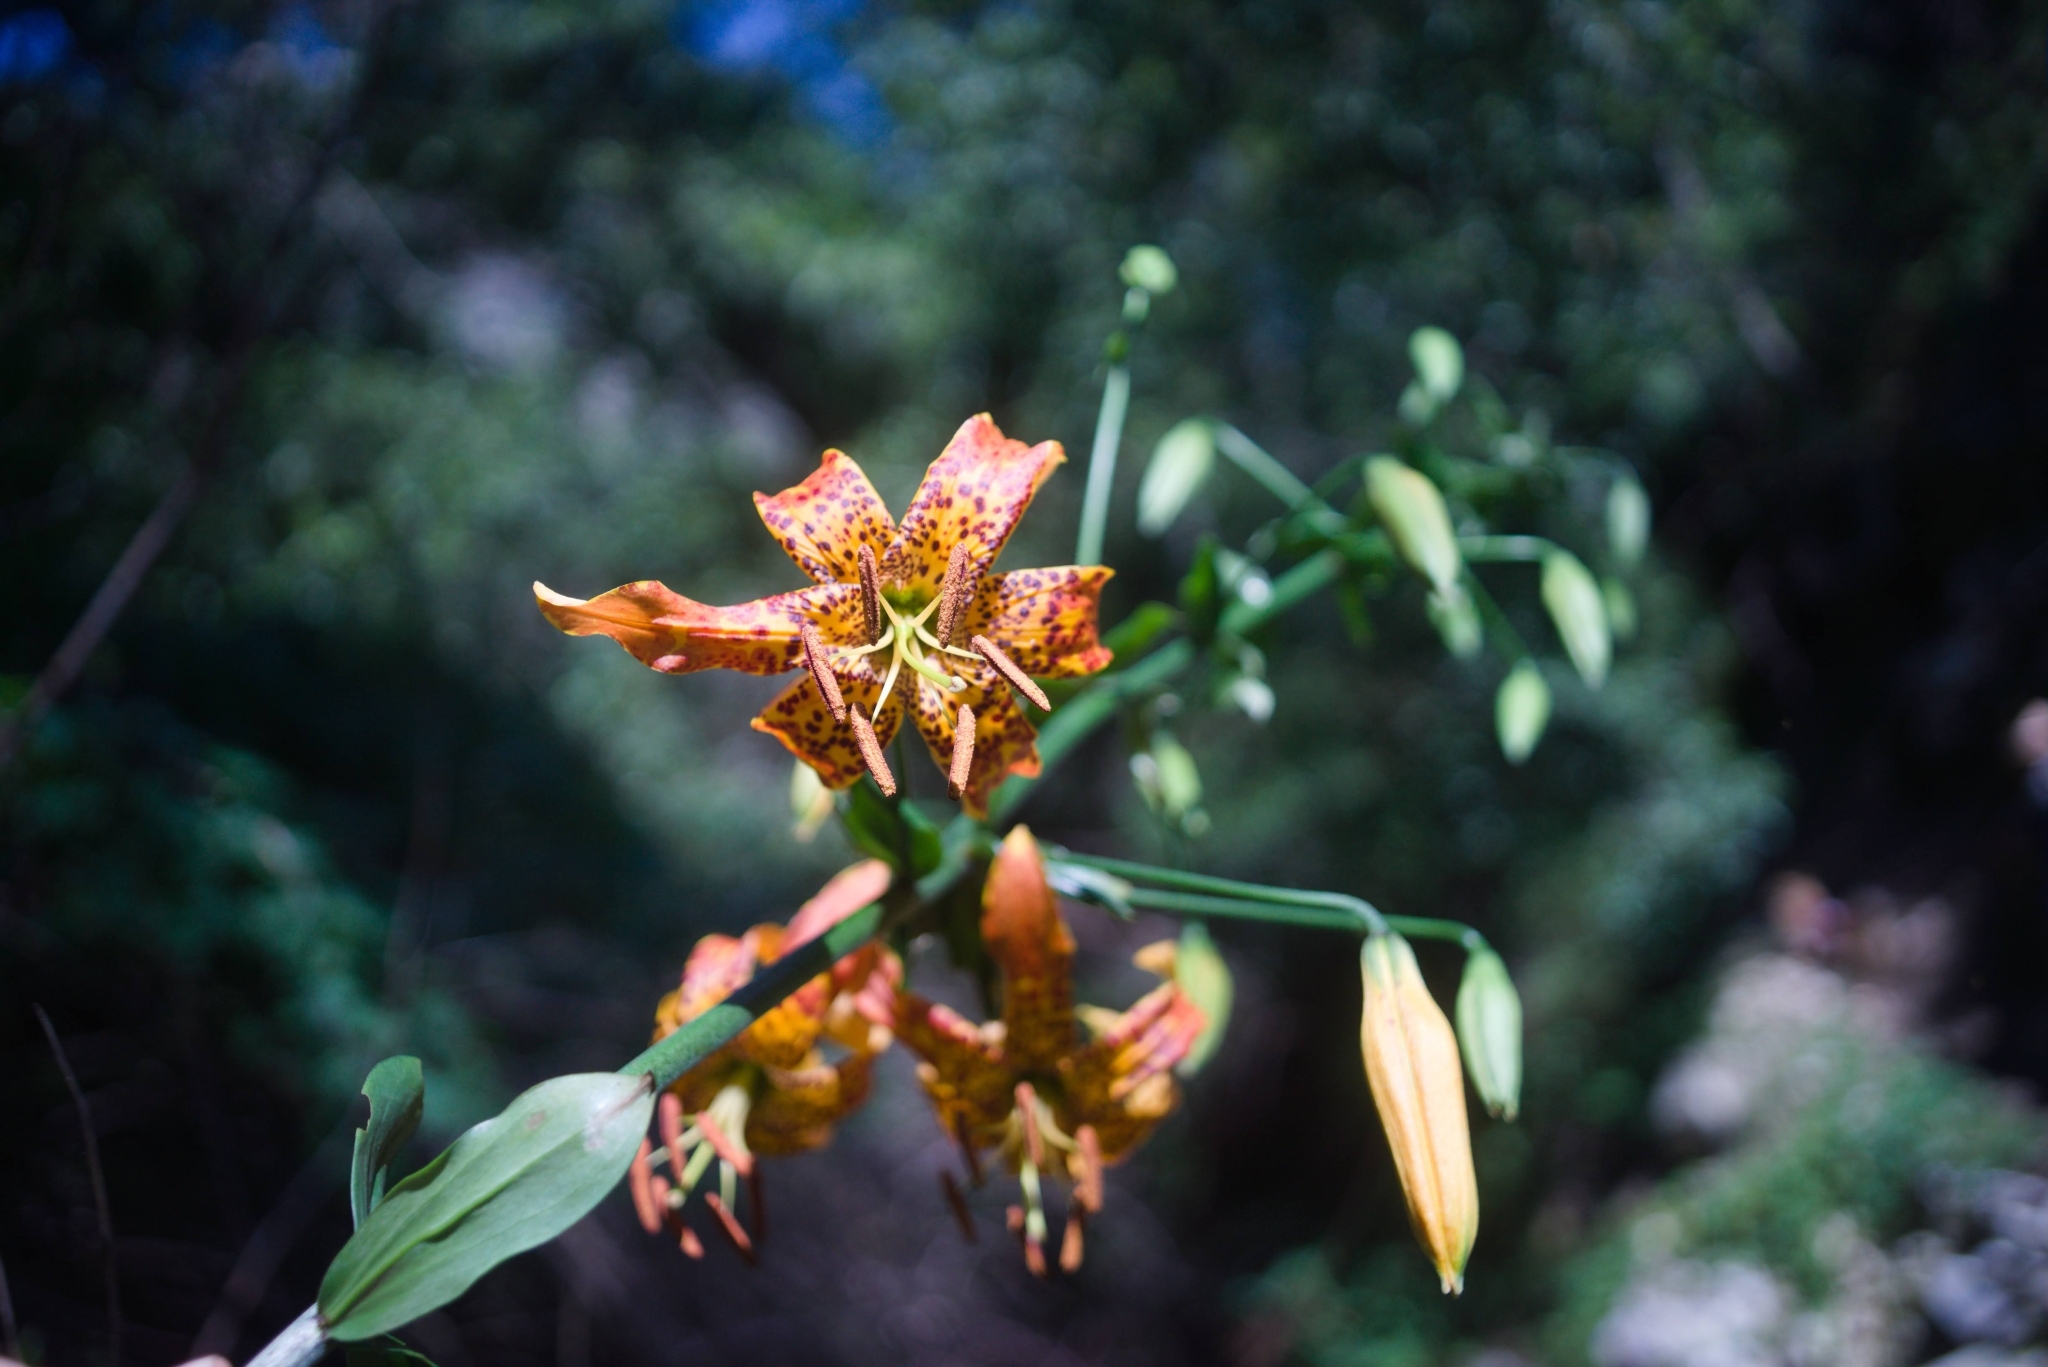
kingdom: Plantae
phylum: Tracheophyta
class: Liliopsida
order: Liliales
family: Liliaceae
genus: Lilium
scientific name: Lilium humboldtii
